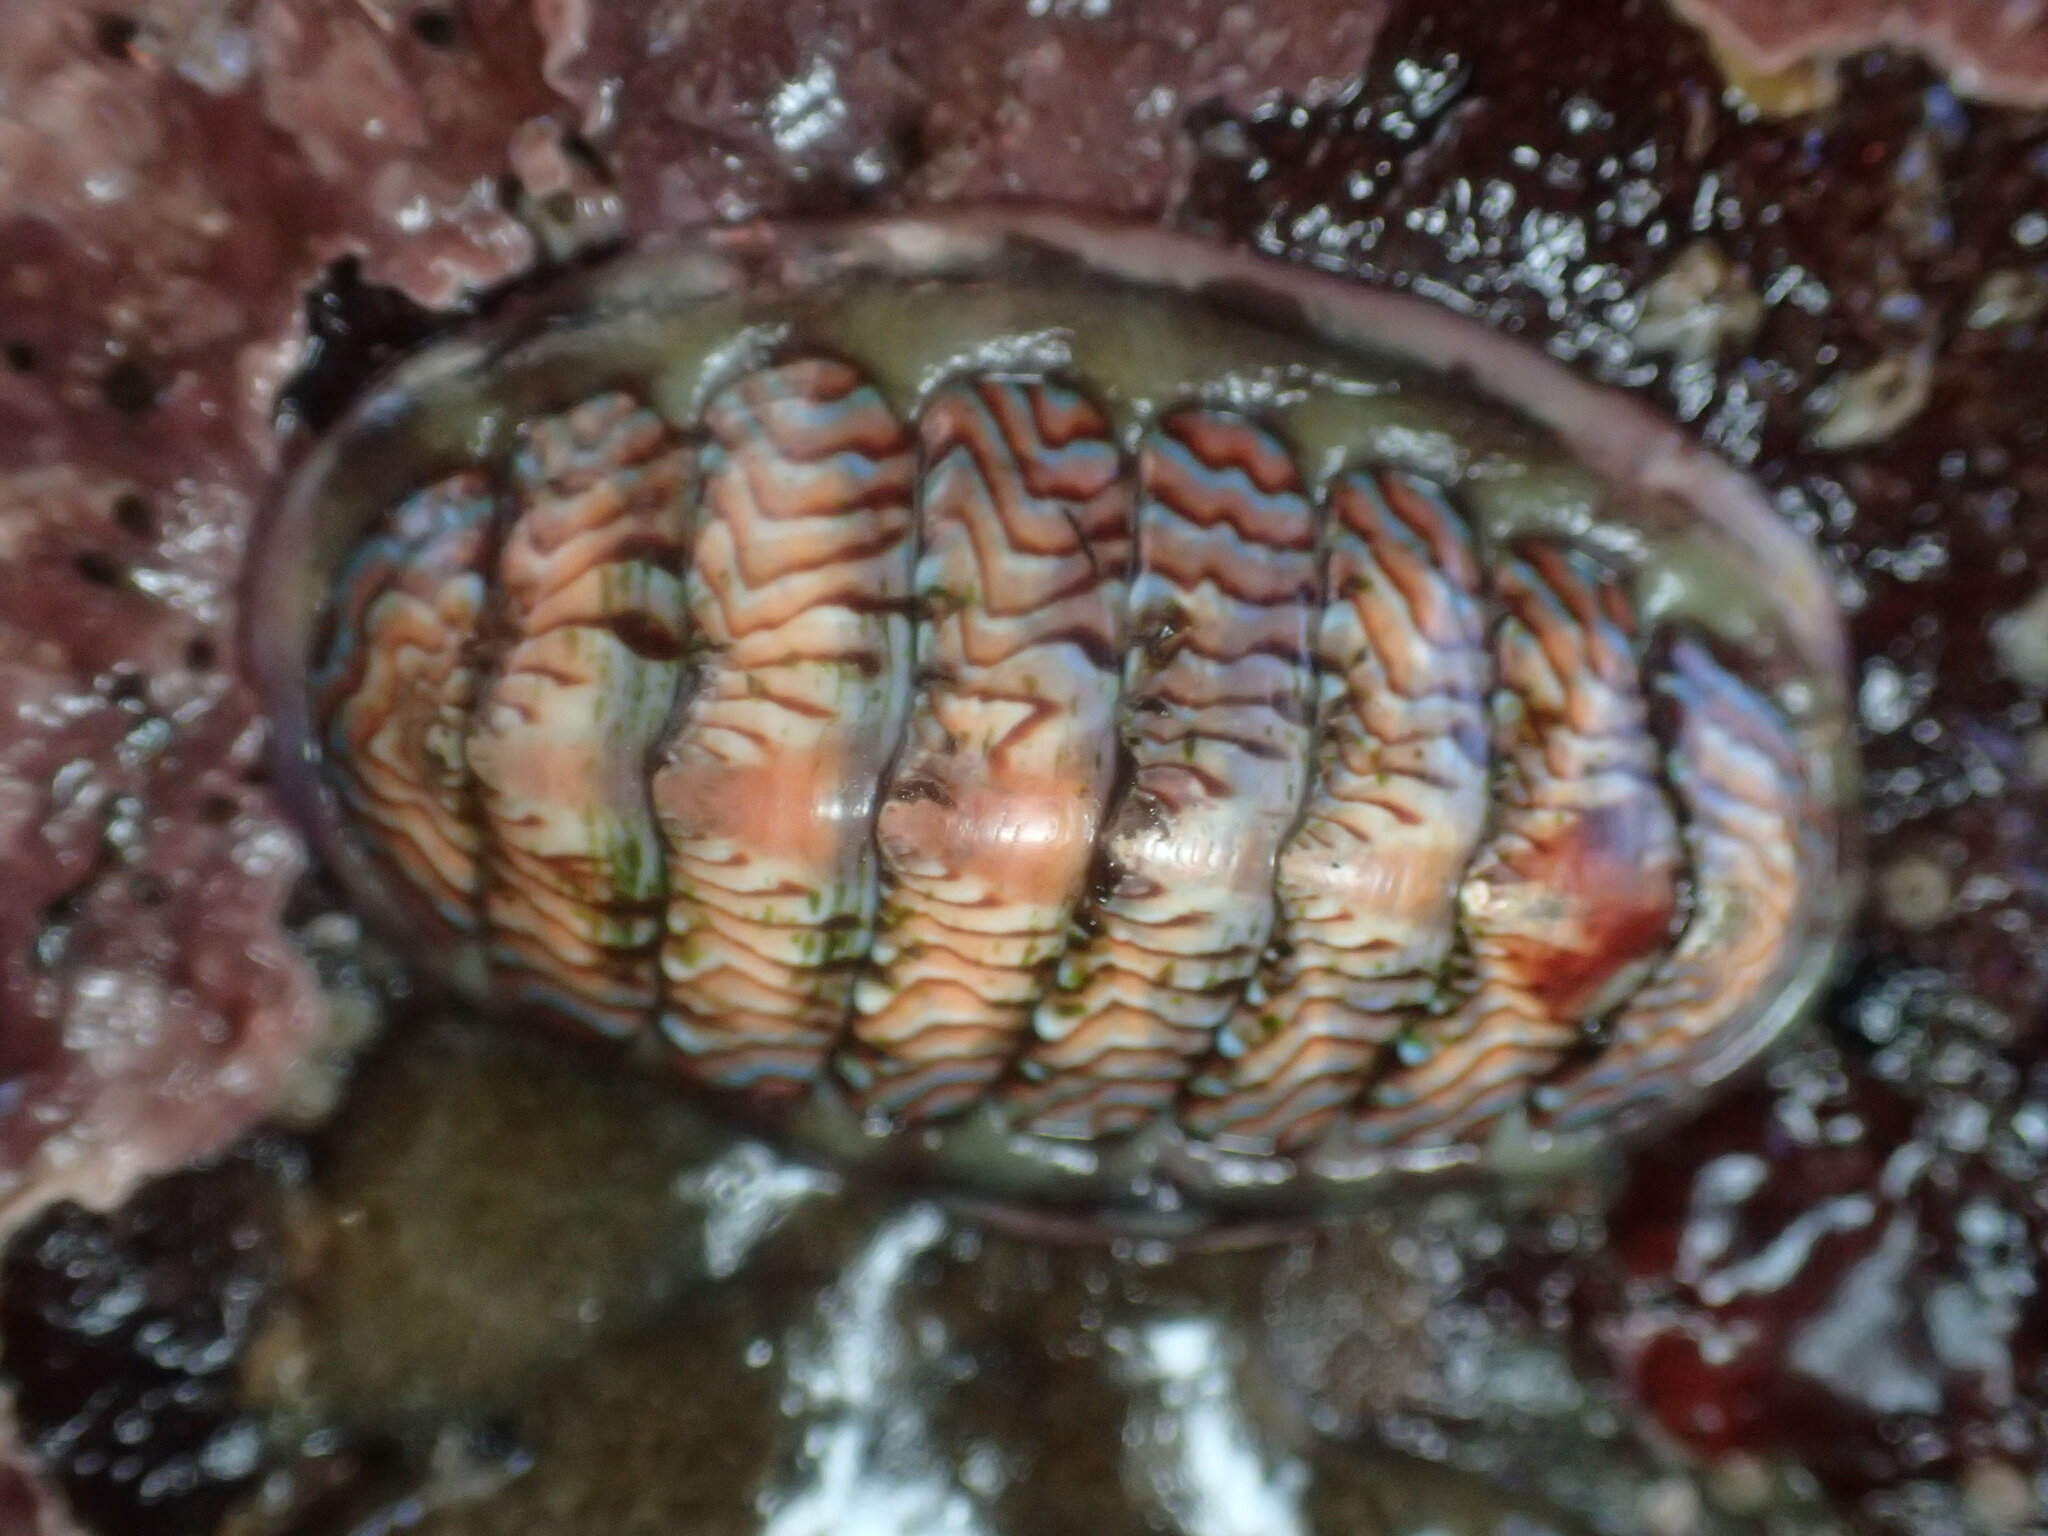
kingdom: Animalia
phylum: Mollusca
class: Polyplacophora
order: Chitonida
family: Tonicellidae
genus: Tonicella
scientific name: Tonicella lokii
